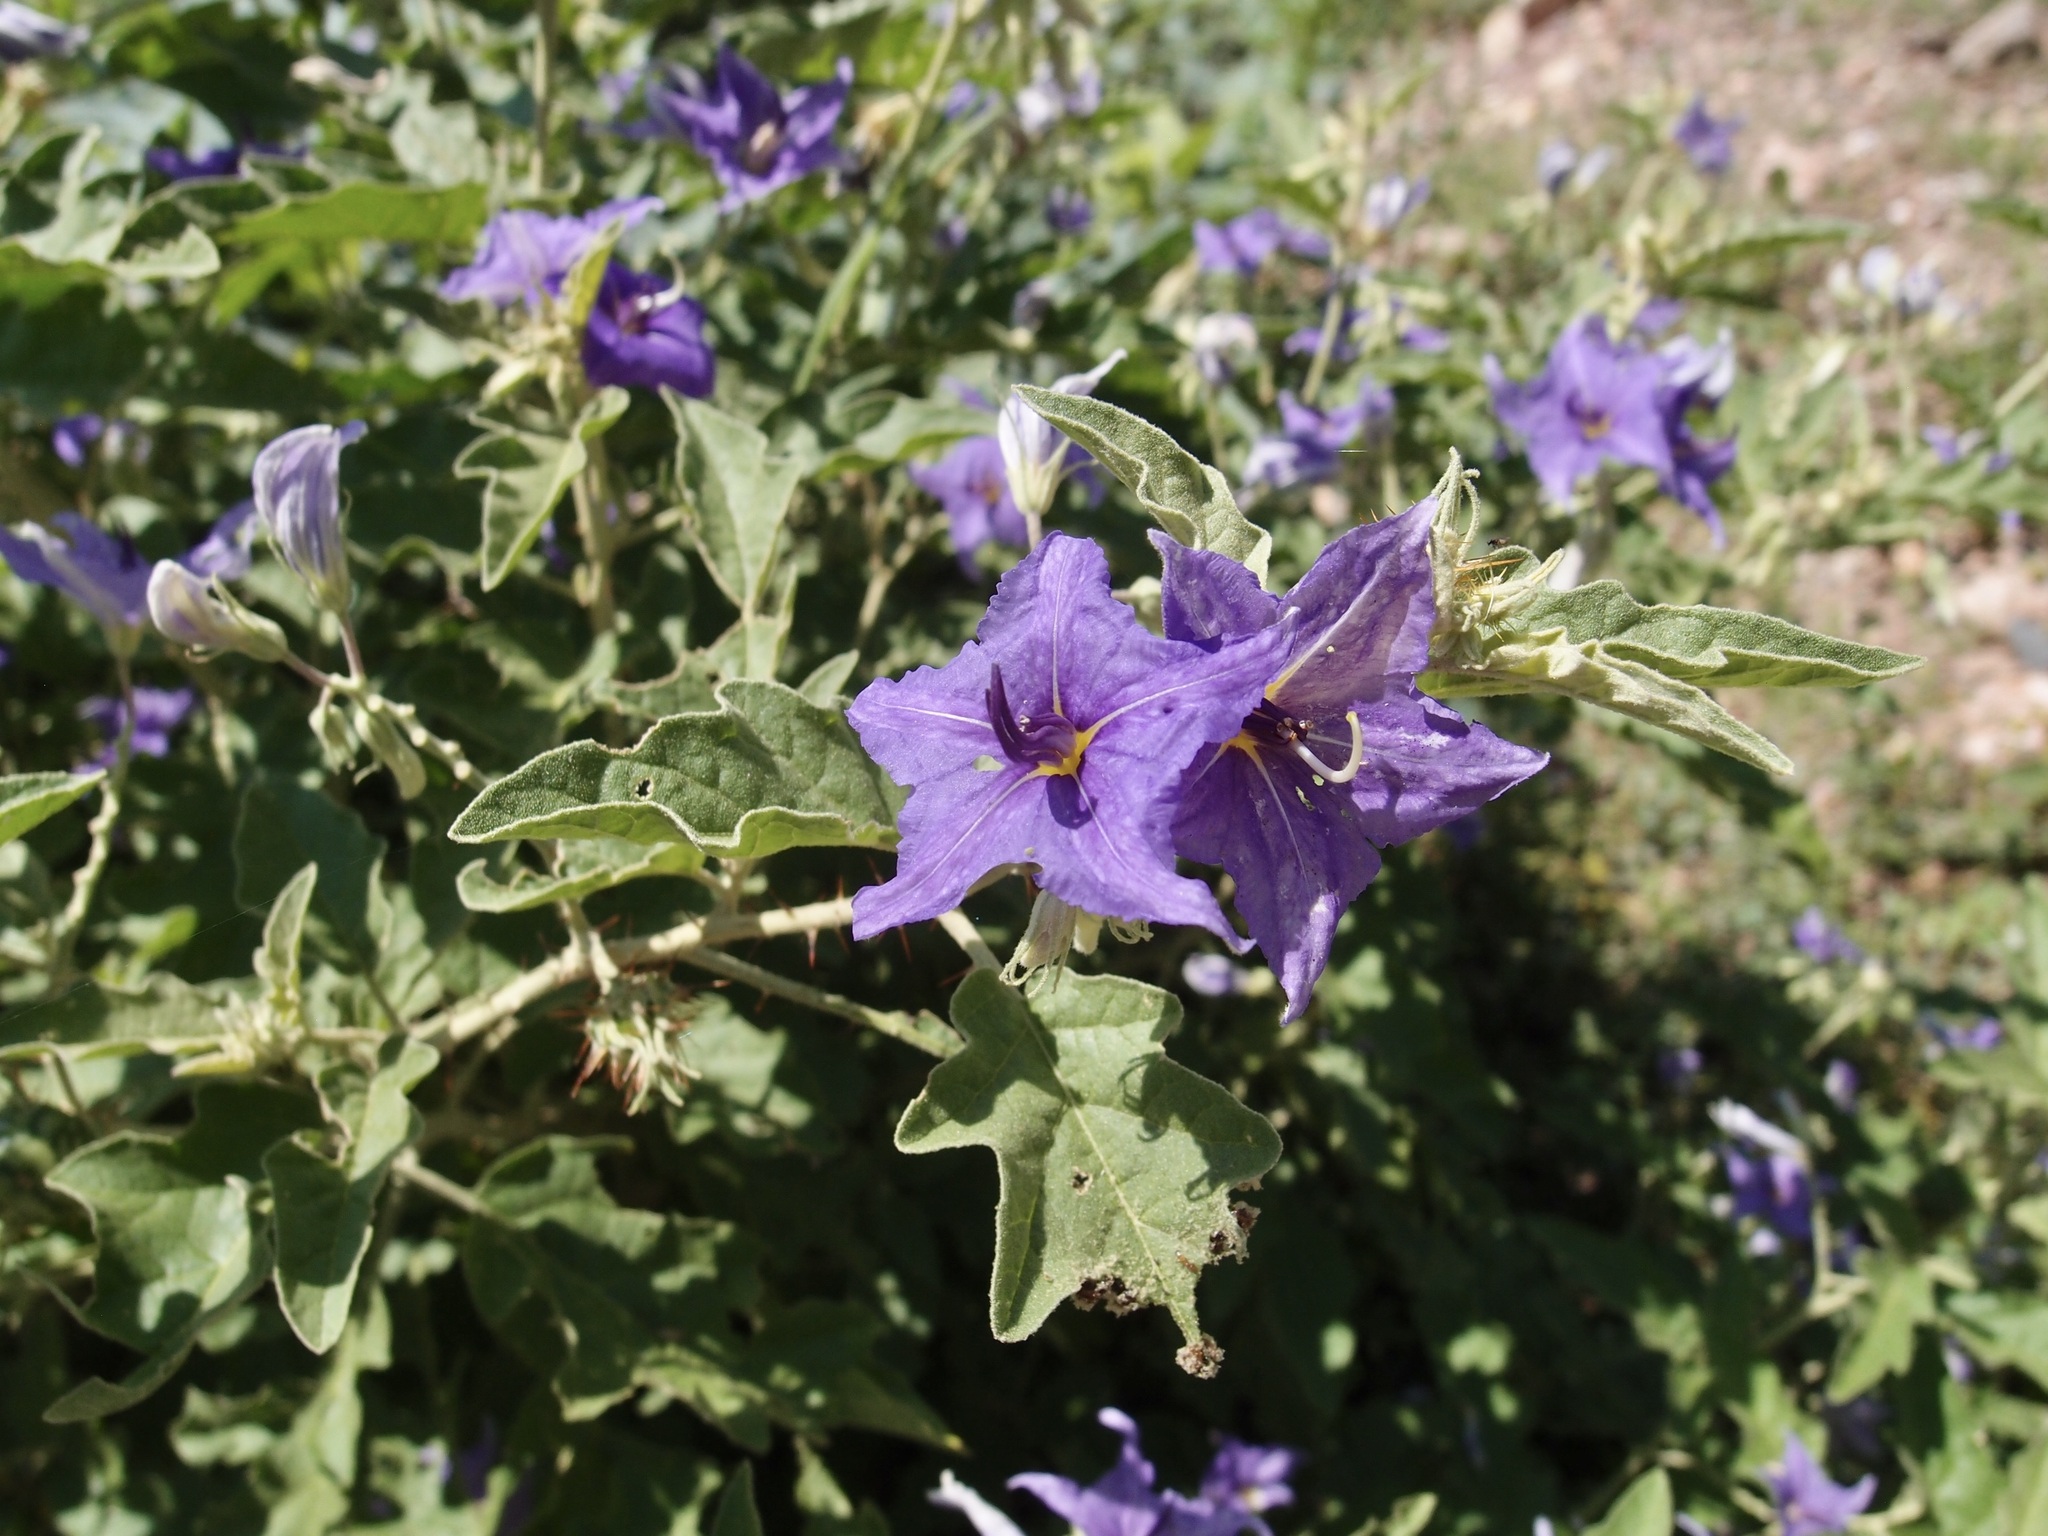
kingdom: Plantae
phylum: Tracheophyta
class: Magnoliopsida
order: Solanales
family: Solanaceae
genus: Solanum
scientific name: Solanum houstonii
